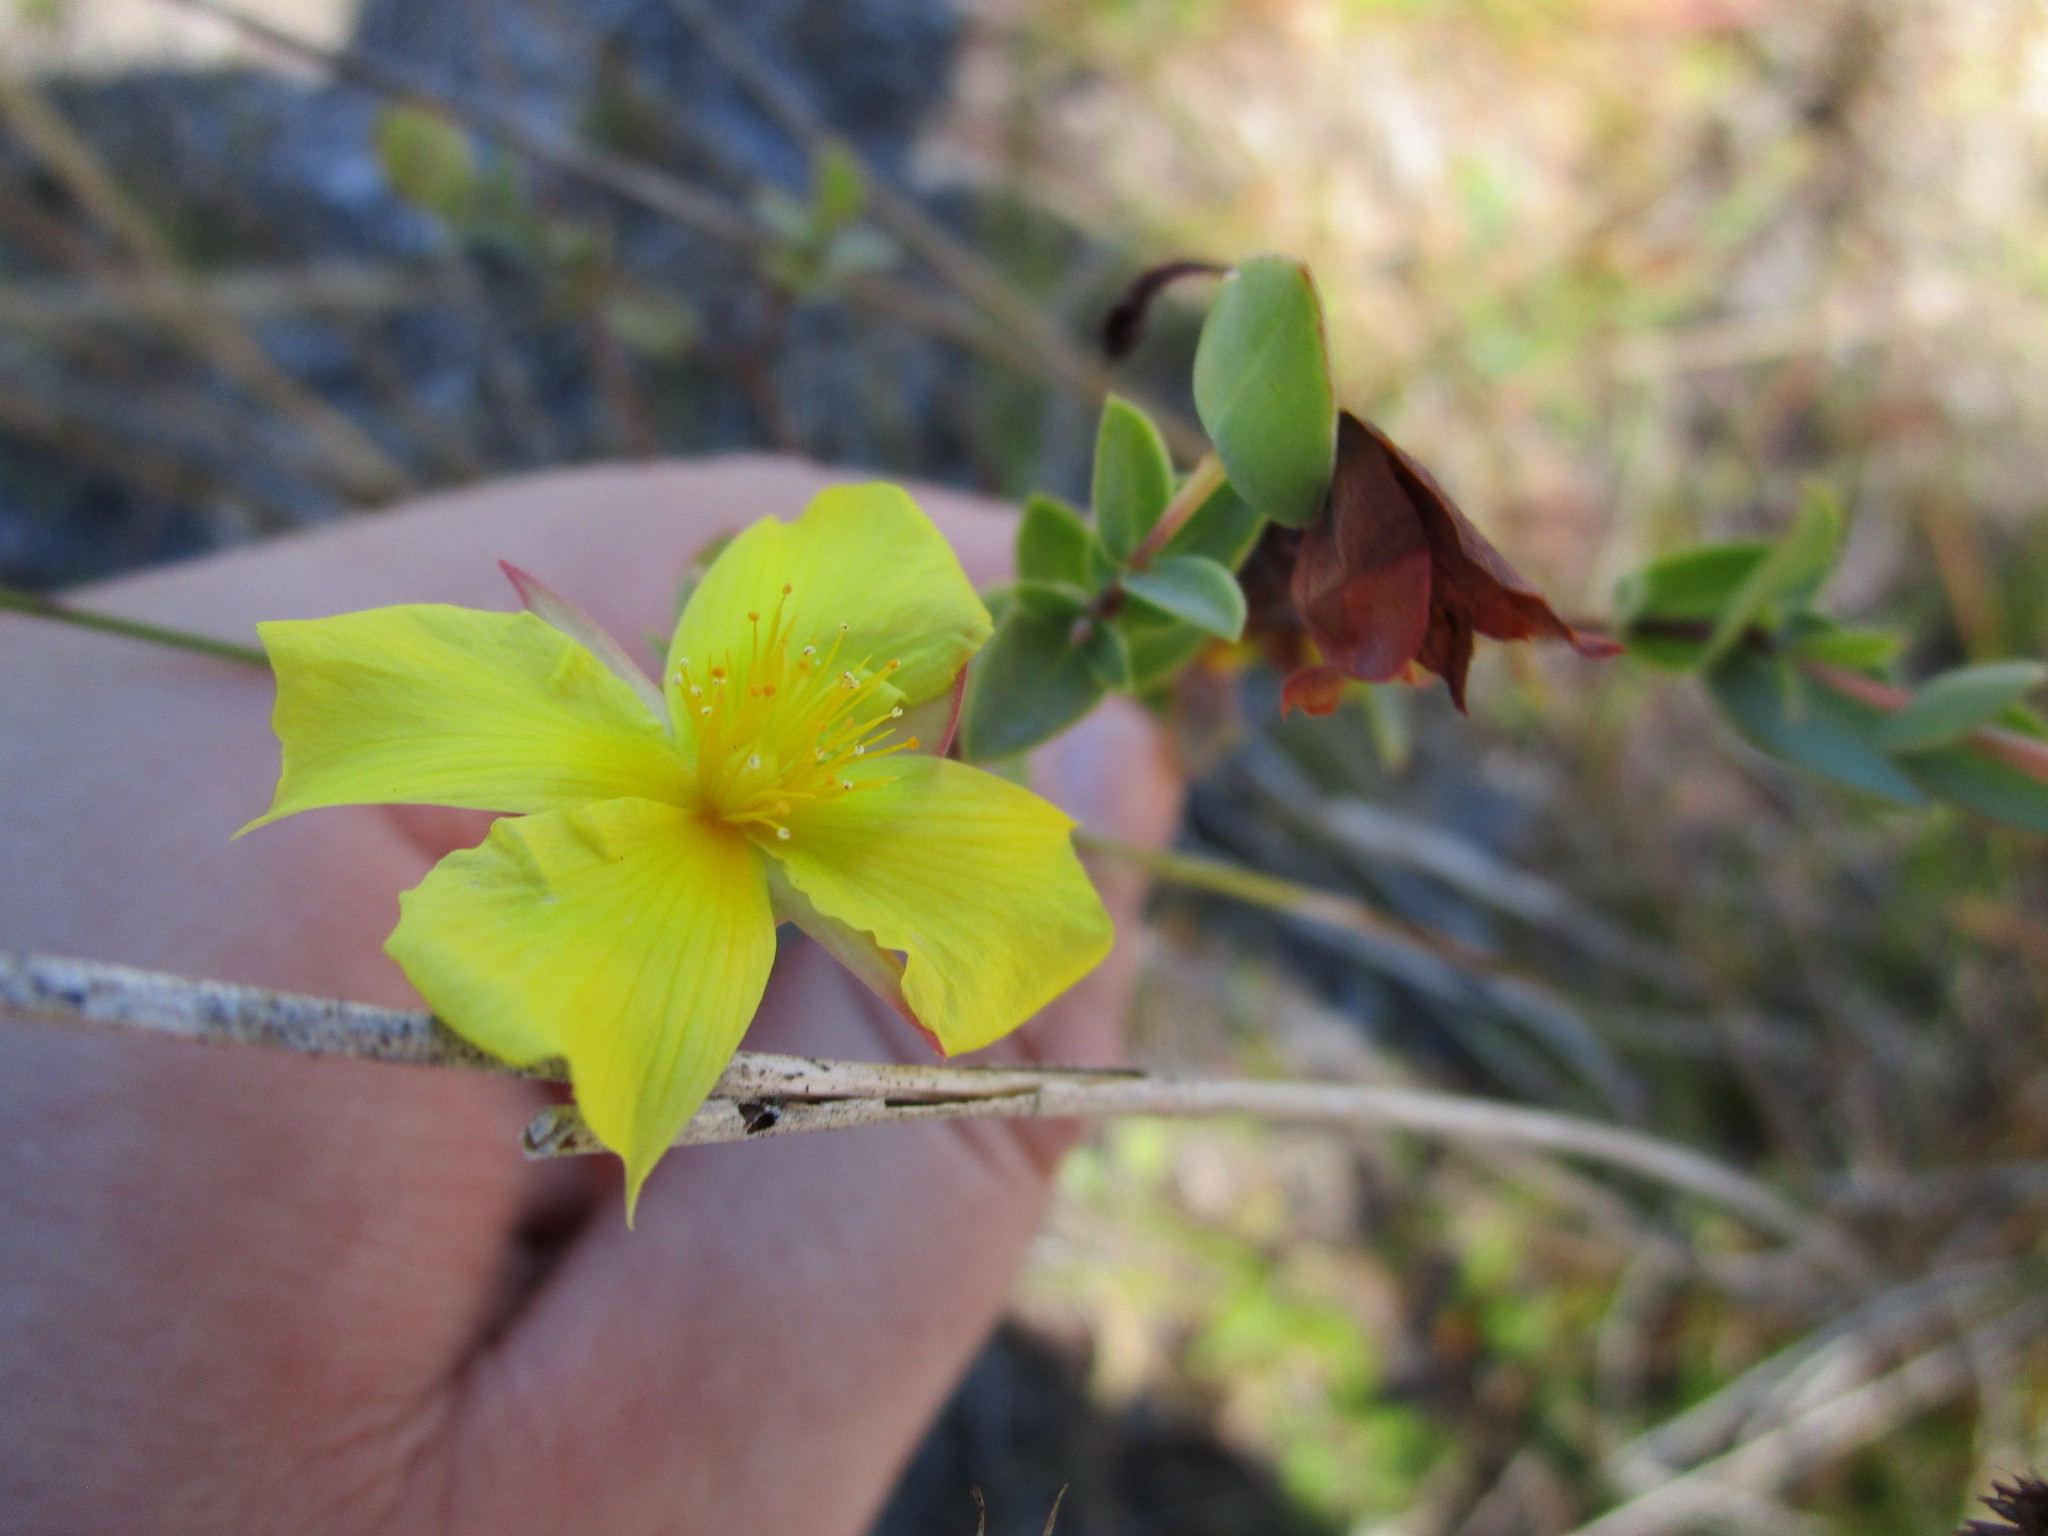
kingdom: Plantae
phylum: Tracheophyta
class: Magnoliopsida
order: Malpighiales
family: Hypericaceae
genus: Hypericum
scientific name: Hypericum tetrapetalum
